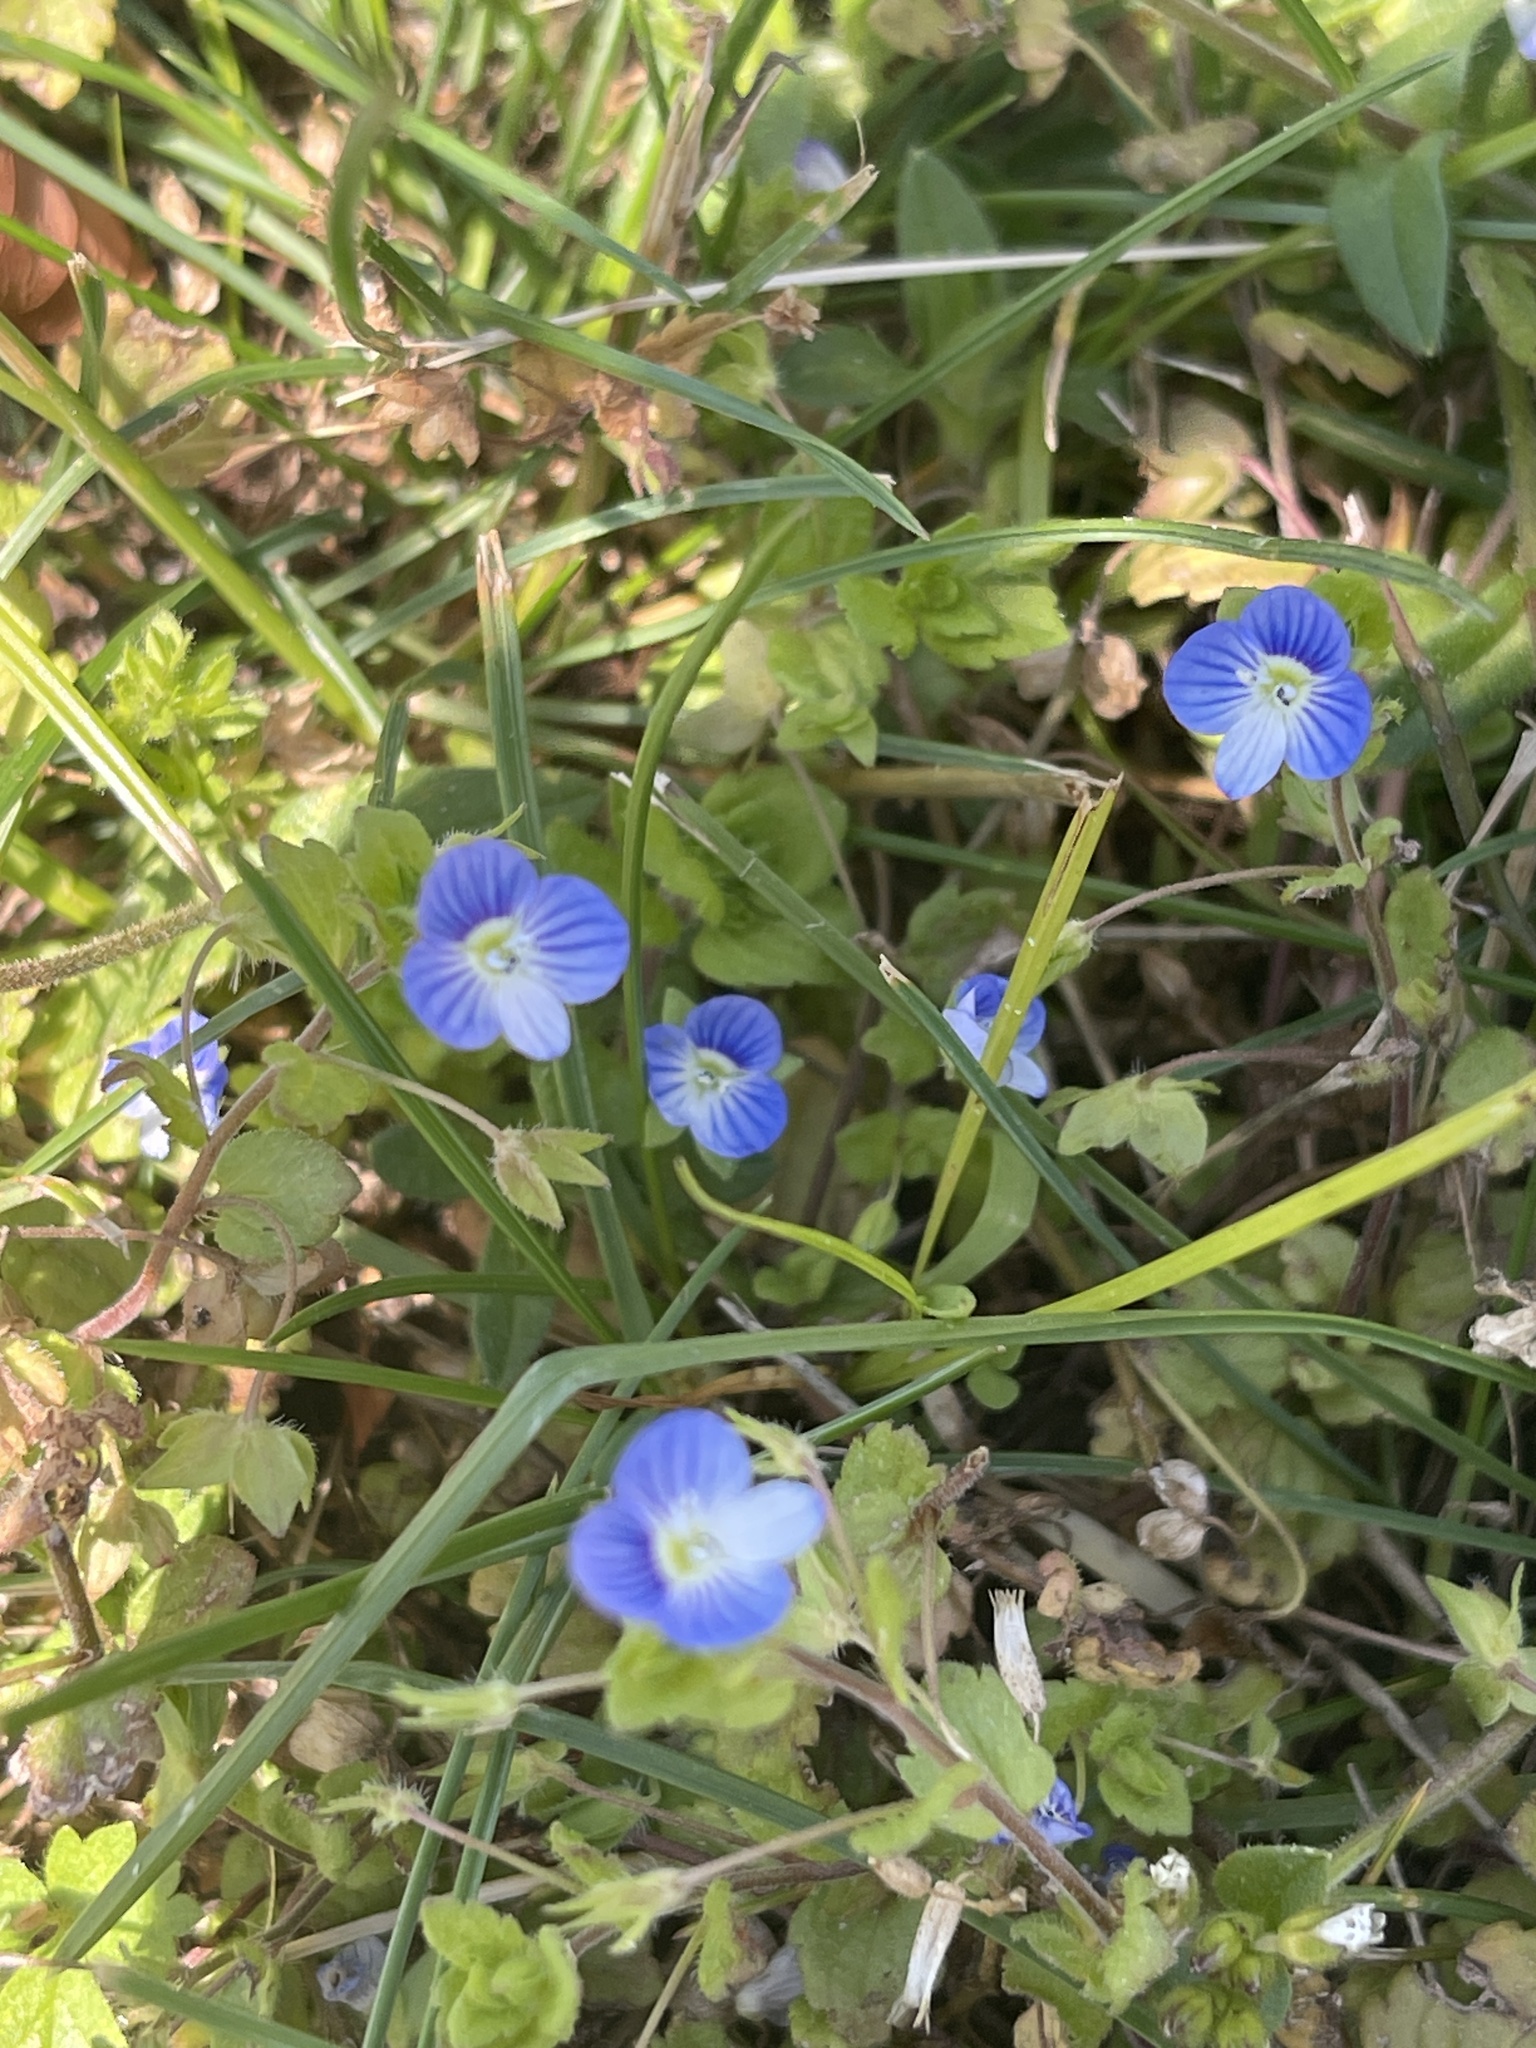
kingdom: Plantae
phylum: Tracheophyta
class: Magnoliopsida
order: Lamiales
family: Plantaginaceae
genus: Veronica
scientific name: Veronica persica
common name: Common field-speedwell
